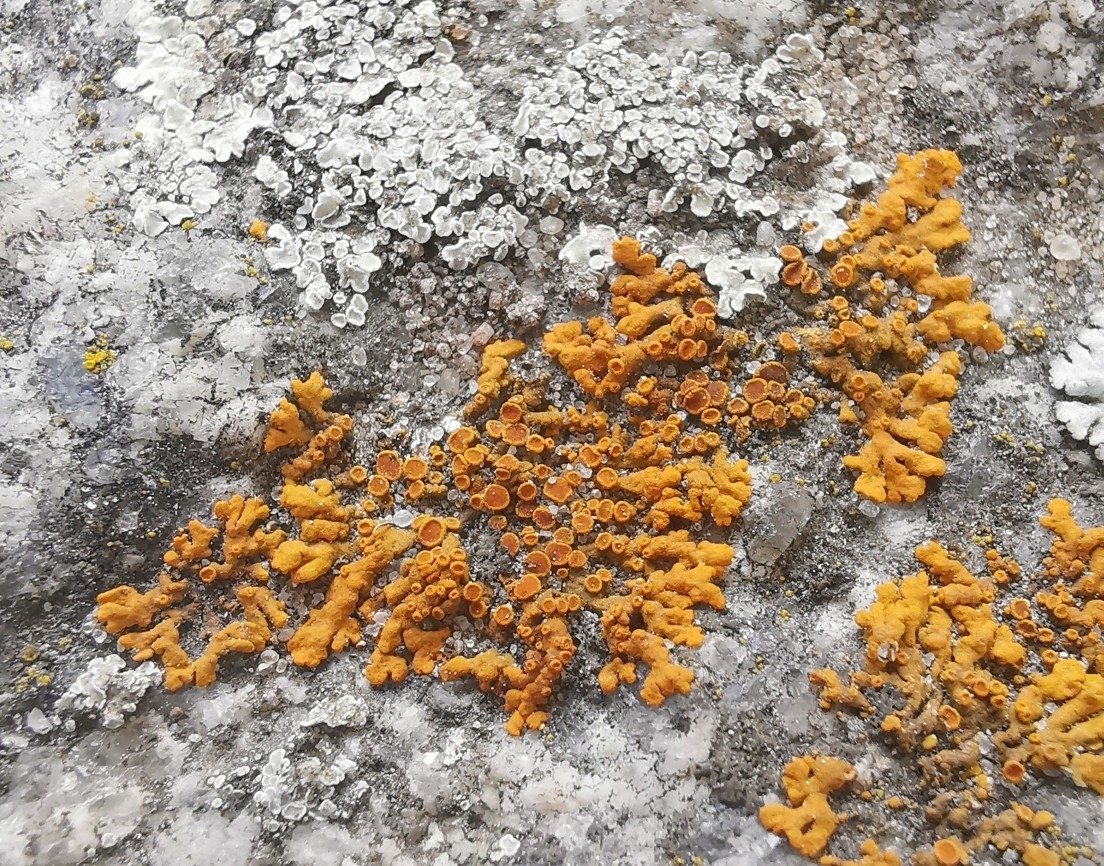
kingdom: Fungi
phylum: Ascomycota
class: Lecanoromycetes
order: Teloschistales
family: Teloschistaceae
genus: Xanthoria
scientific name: Xanthoria elegans
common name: Elegant sunburst lichen
